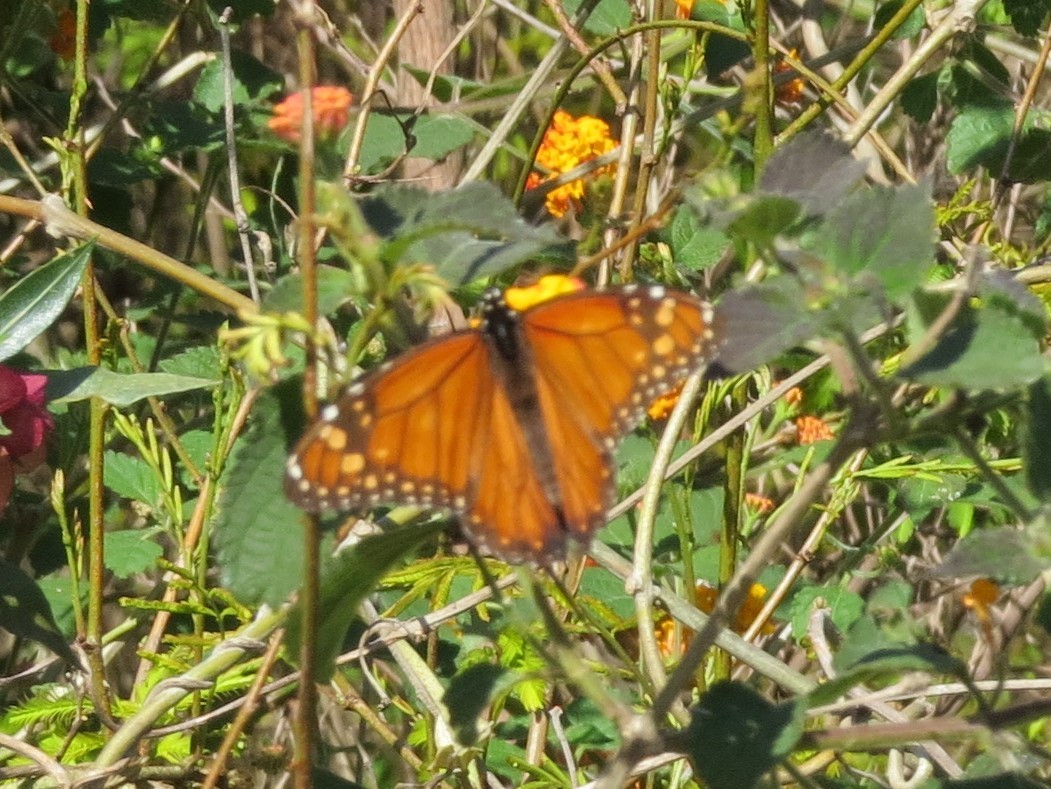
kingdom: Animalia
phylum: Arthropoda
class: Insecta
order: Lepidoptera
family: Nymphalidae
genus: Danaus
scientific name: Danaus erippus
